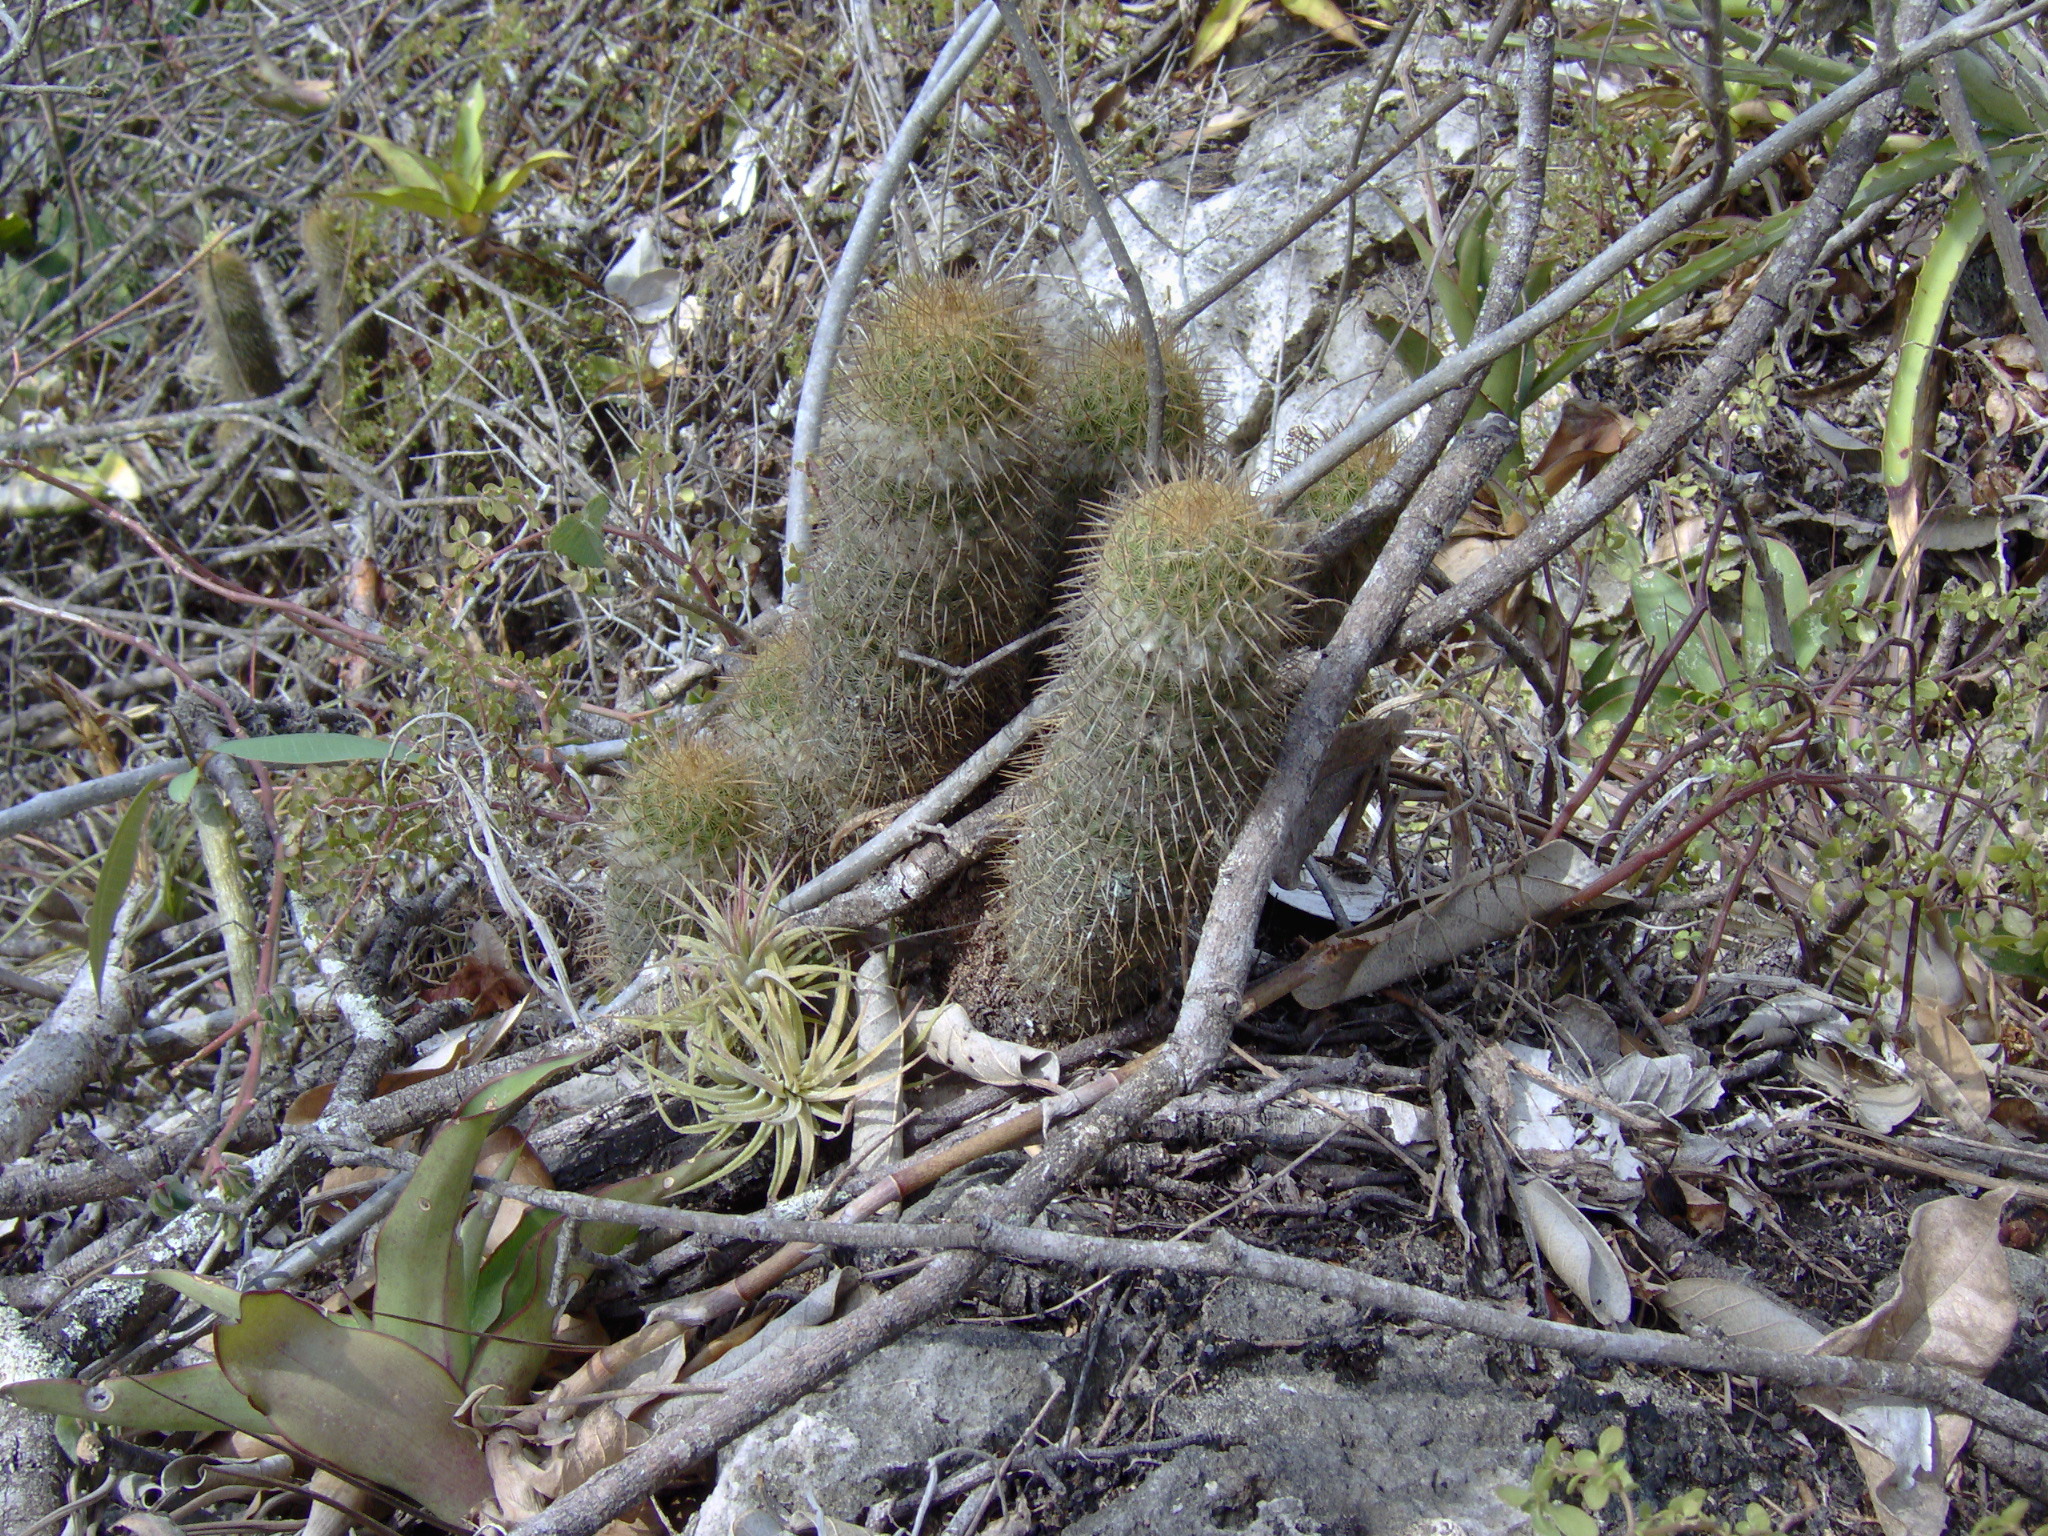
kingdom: Plantae
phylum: Tracheophyta
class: Magnoliopsida
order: Caryophyllales
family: Cactaceae
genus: Mammillaria
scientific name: Mammillaria eriacantha
